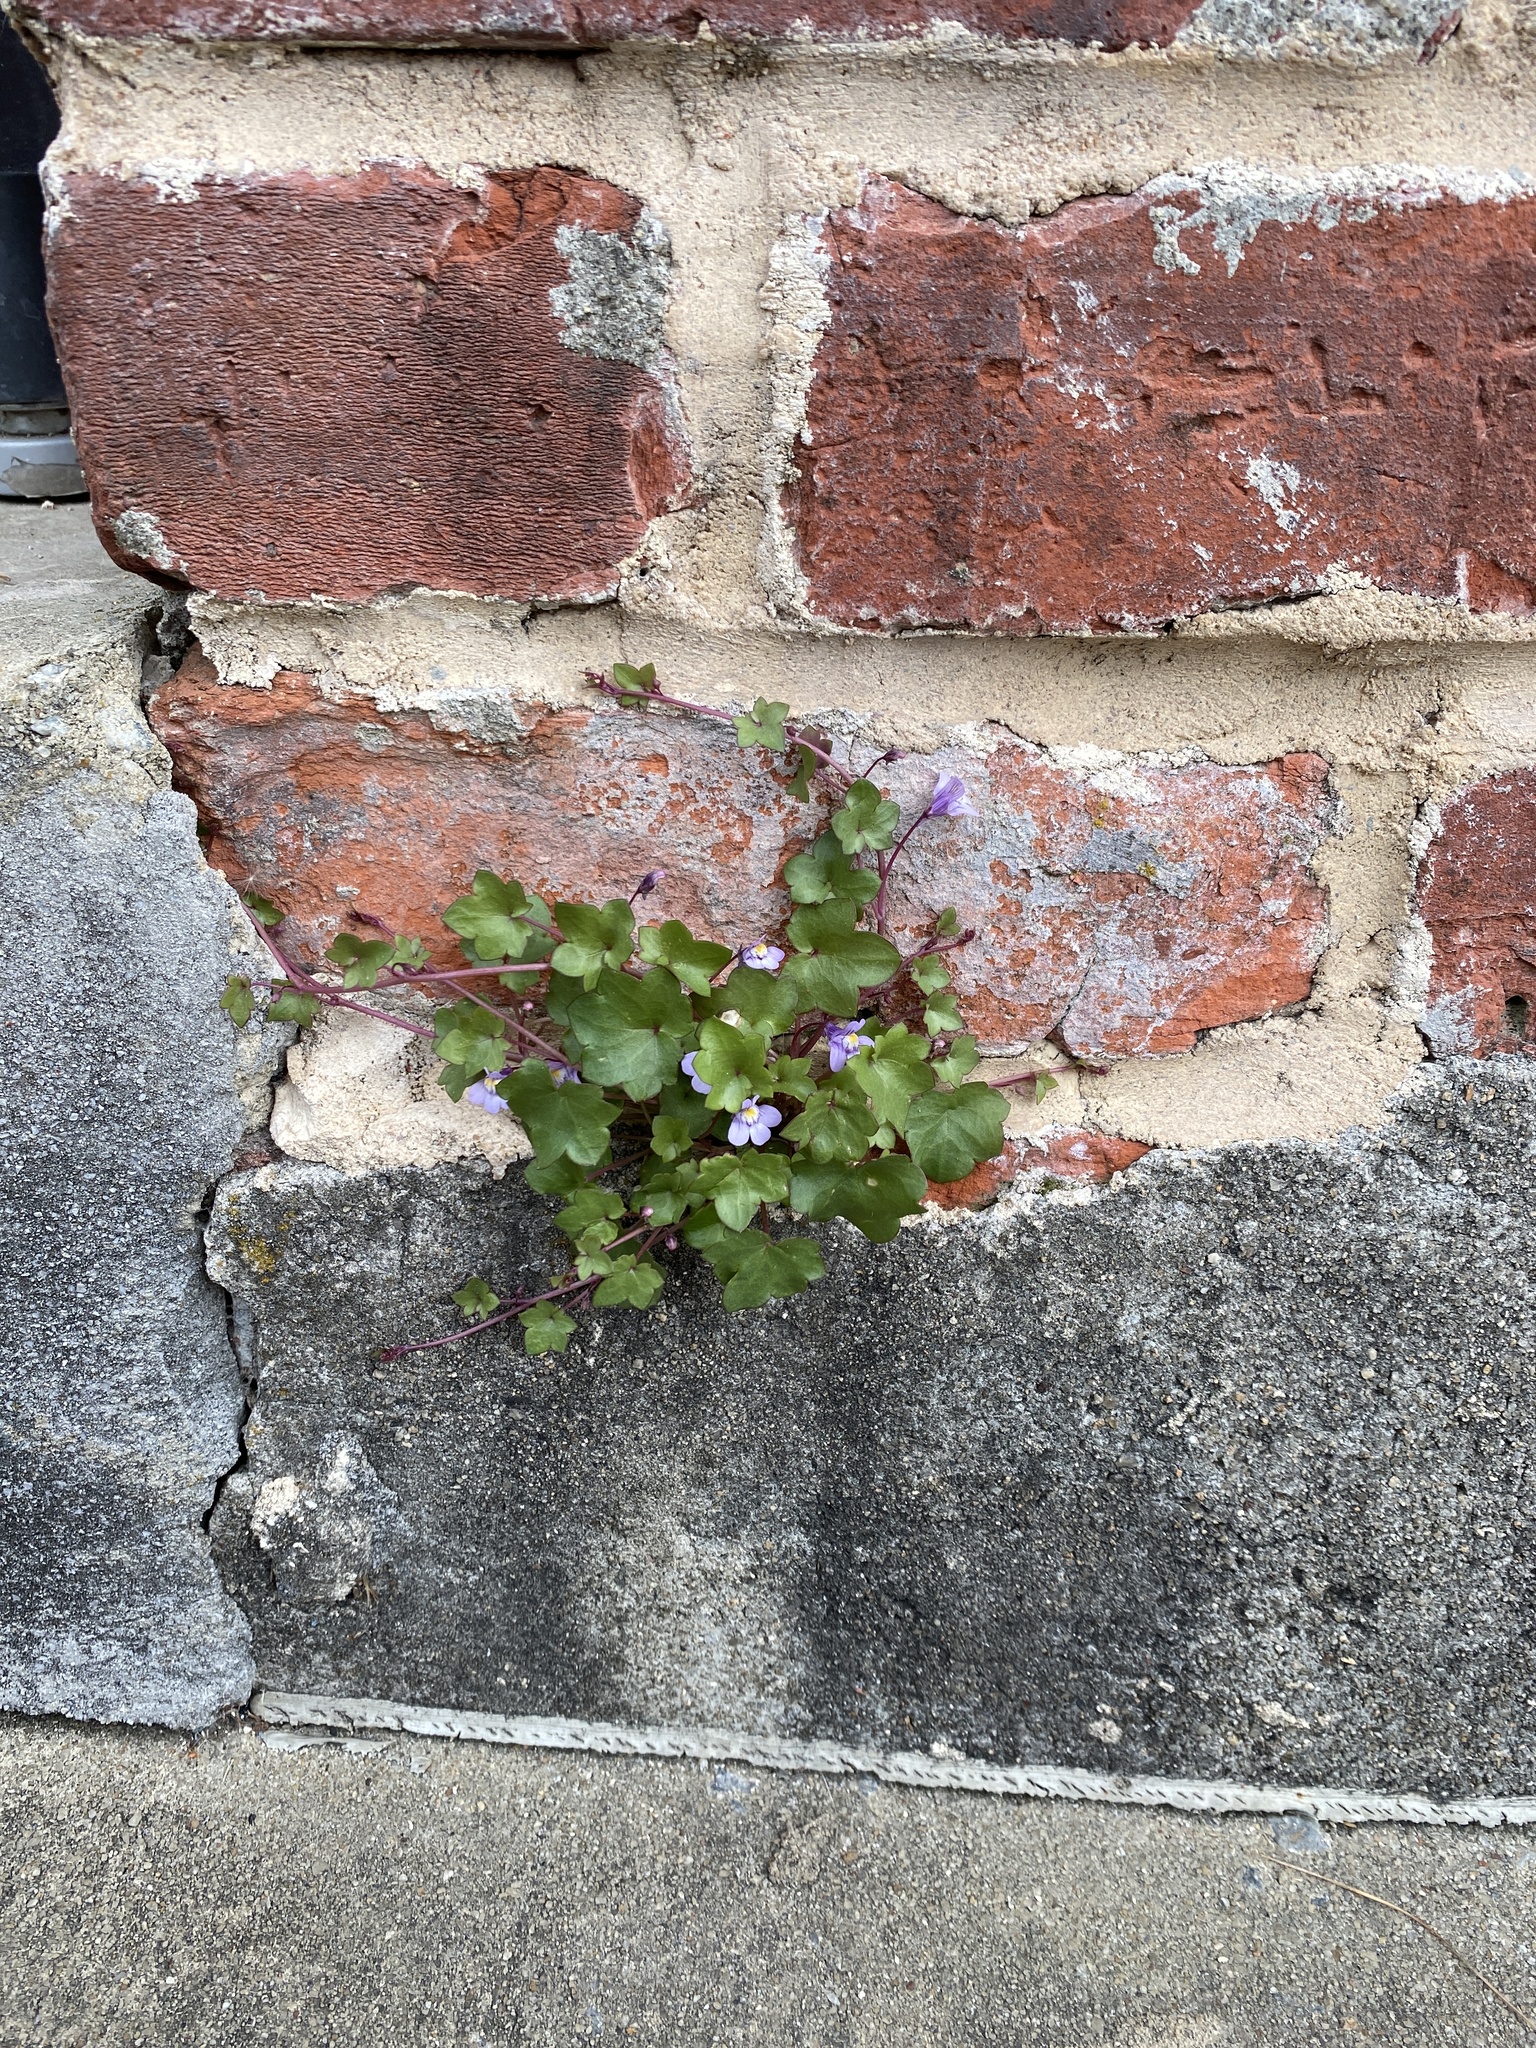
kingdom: Plantae
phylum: Tracheophyta
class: Magnoliopsida
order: Lamiales
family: Plantaginaceae
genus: Cymbalaria
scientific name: Cymbalaria muralis
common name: Ivy-leaved toadflax
